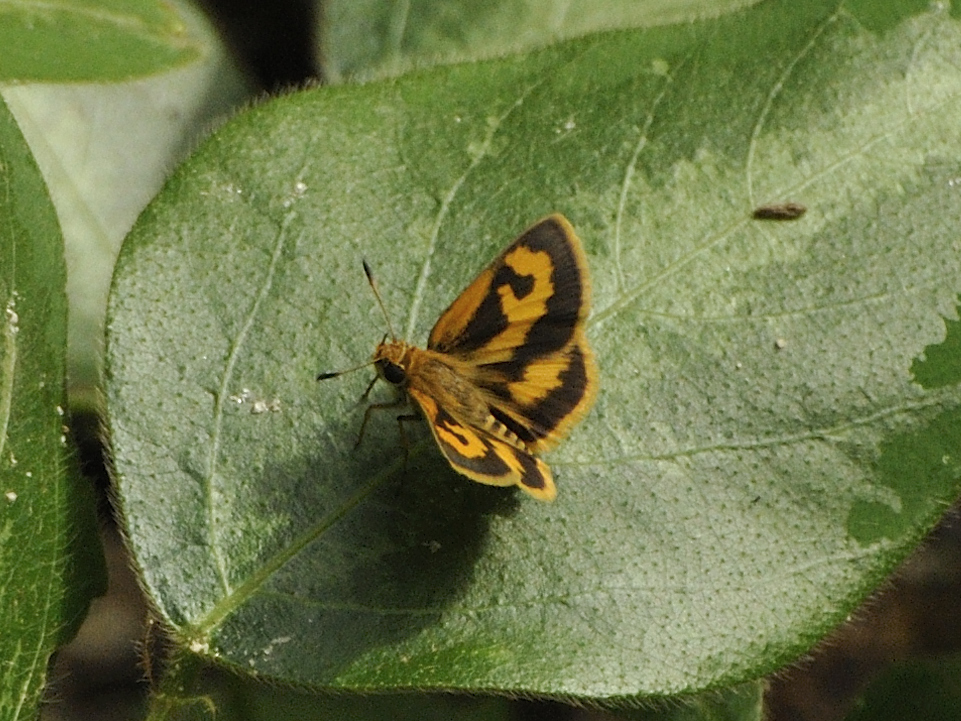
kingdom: Animalia
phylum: Arthropoda
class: Insecta
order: Lepidoptera
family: Hesperiidae
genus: Acada
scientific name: Acada biseriatus
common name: Axehead orange
